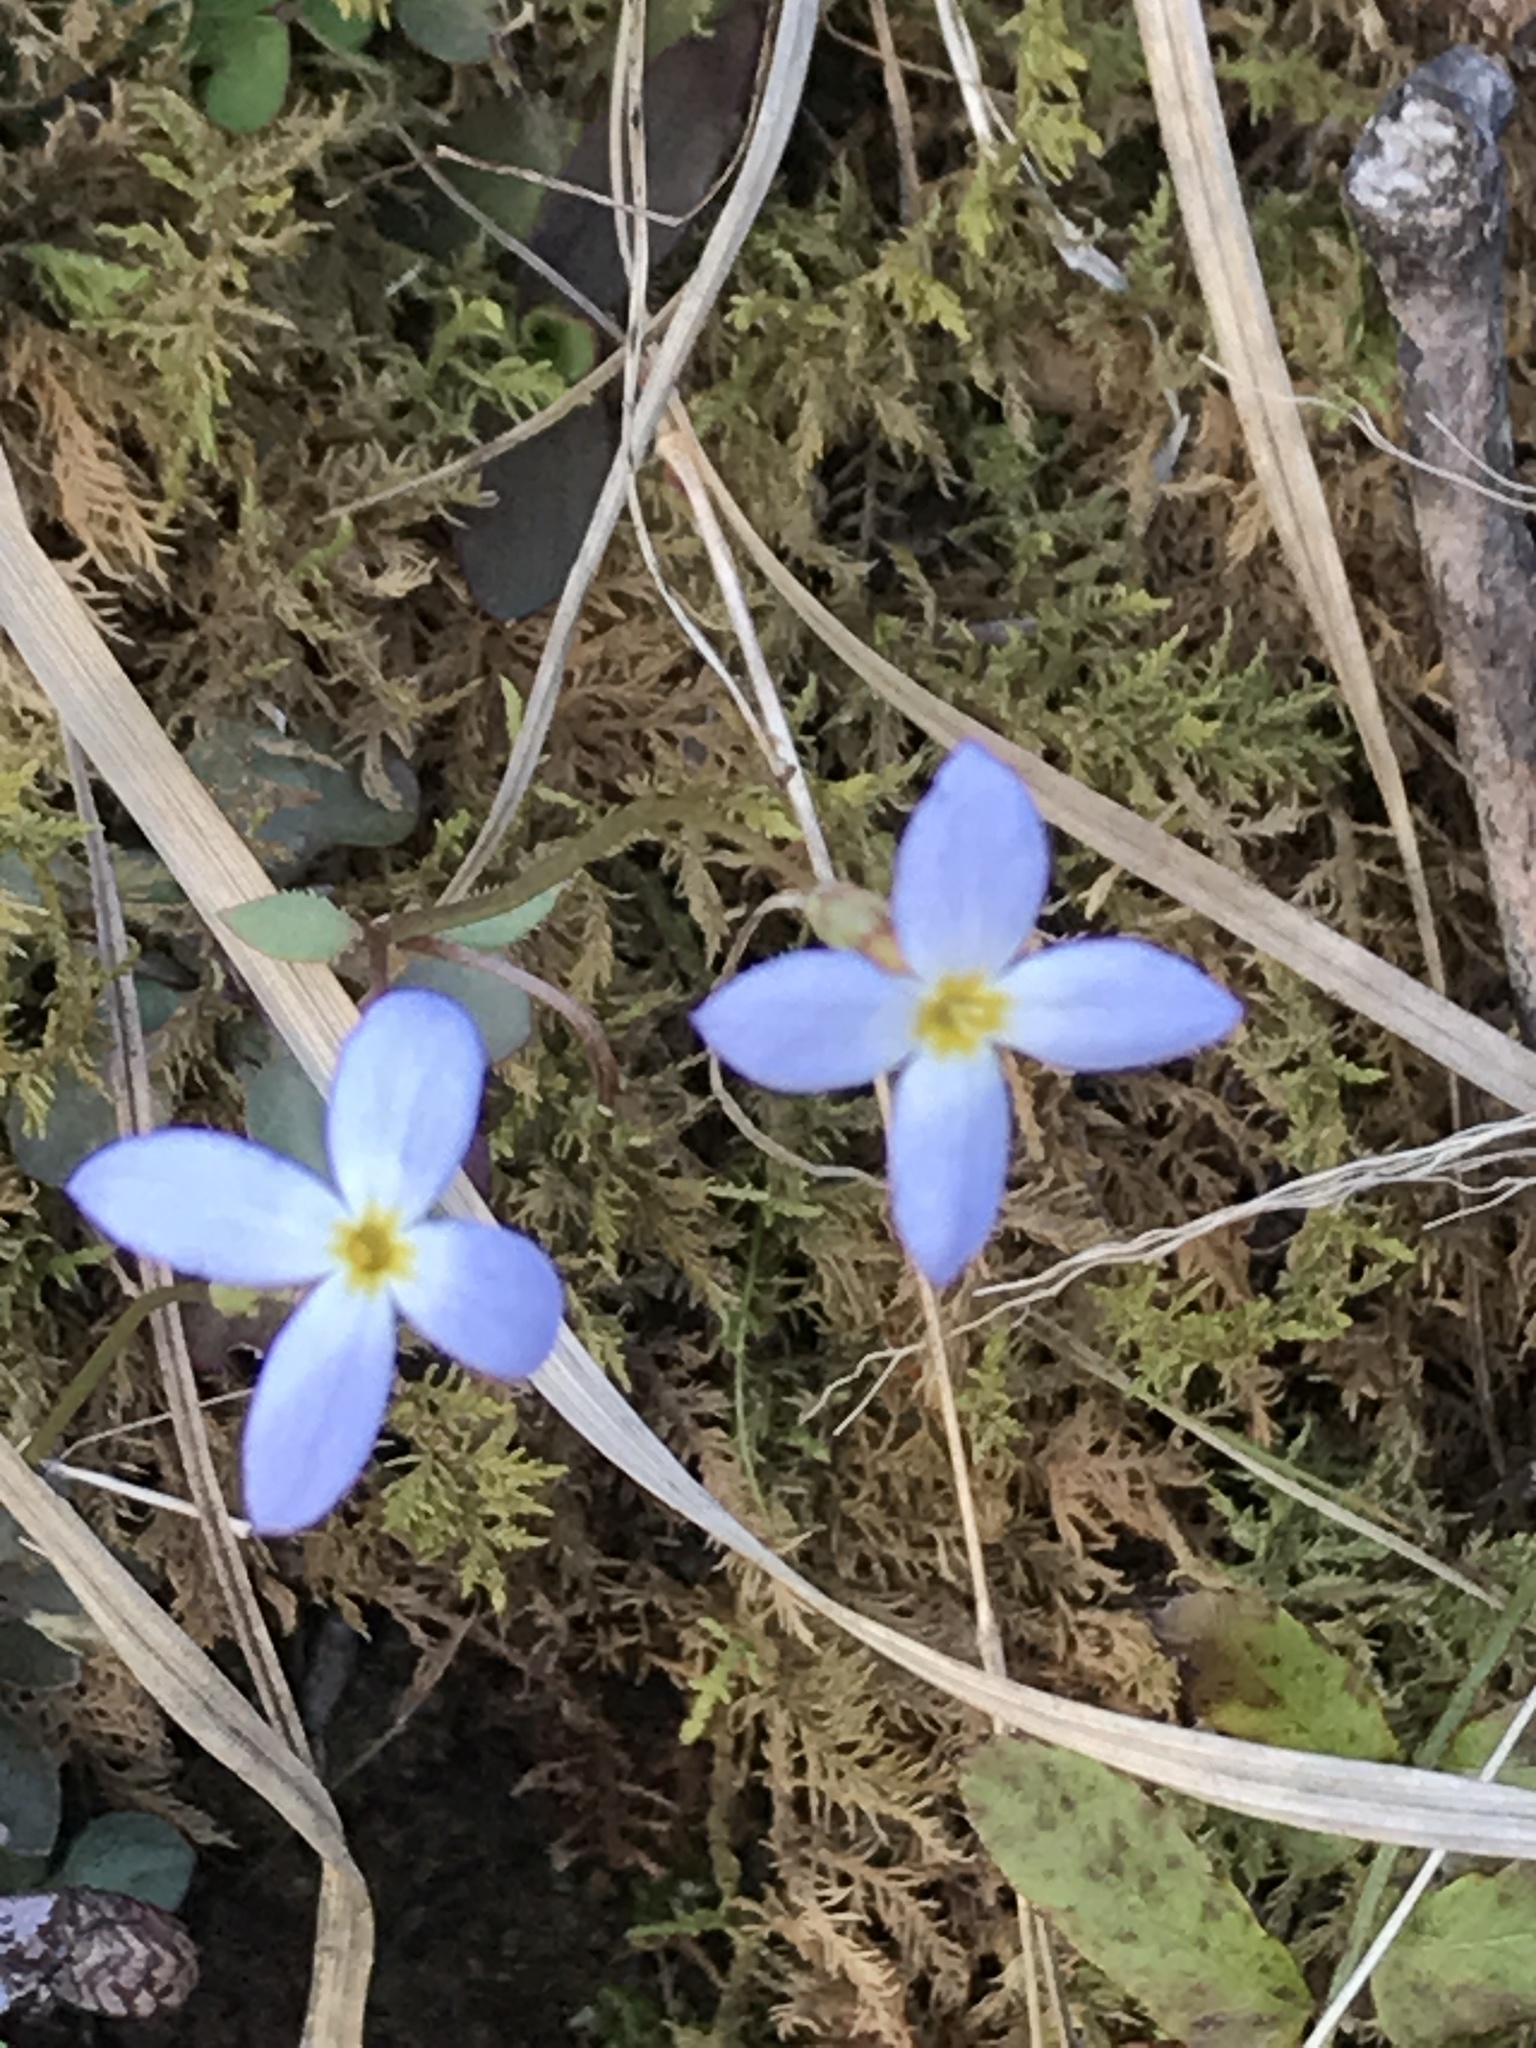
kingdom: Plantae
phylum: Tracheophyta
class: Magnoliopsida
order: Gentianales
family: Rubiaceae
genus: Houstonia
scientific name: Houstonia caerulea
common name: Bluets
